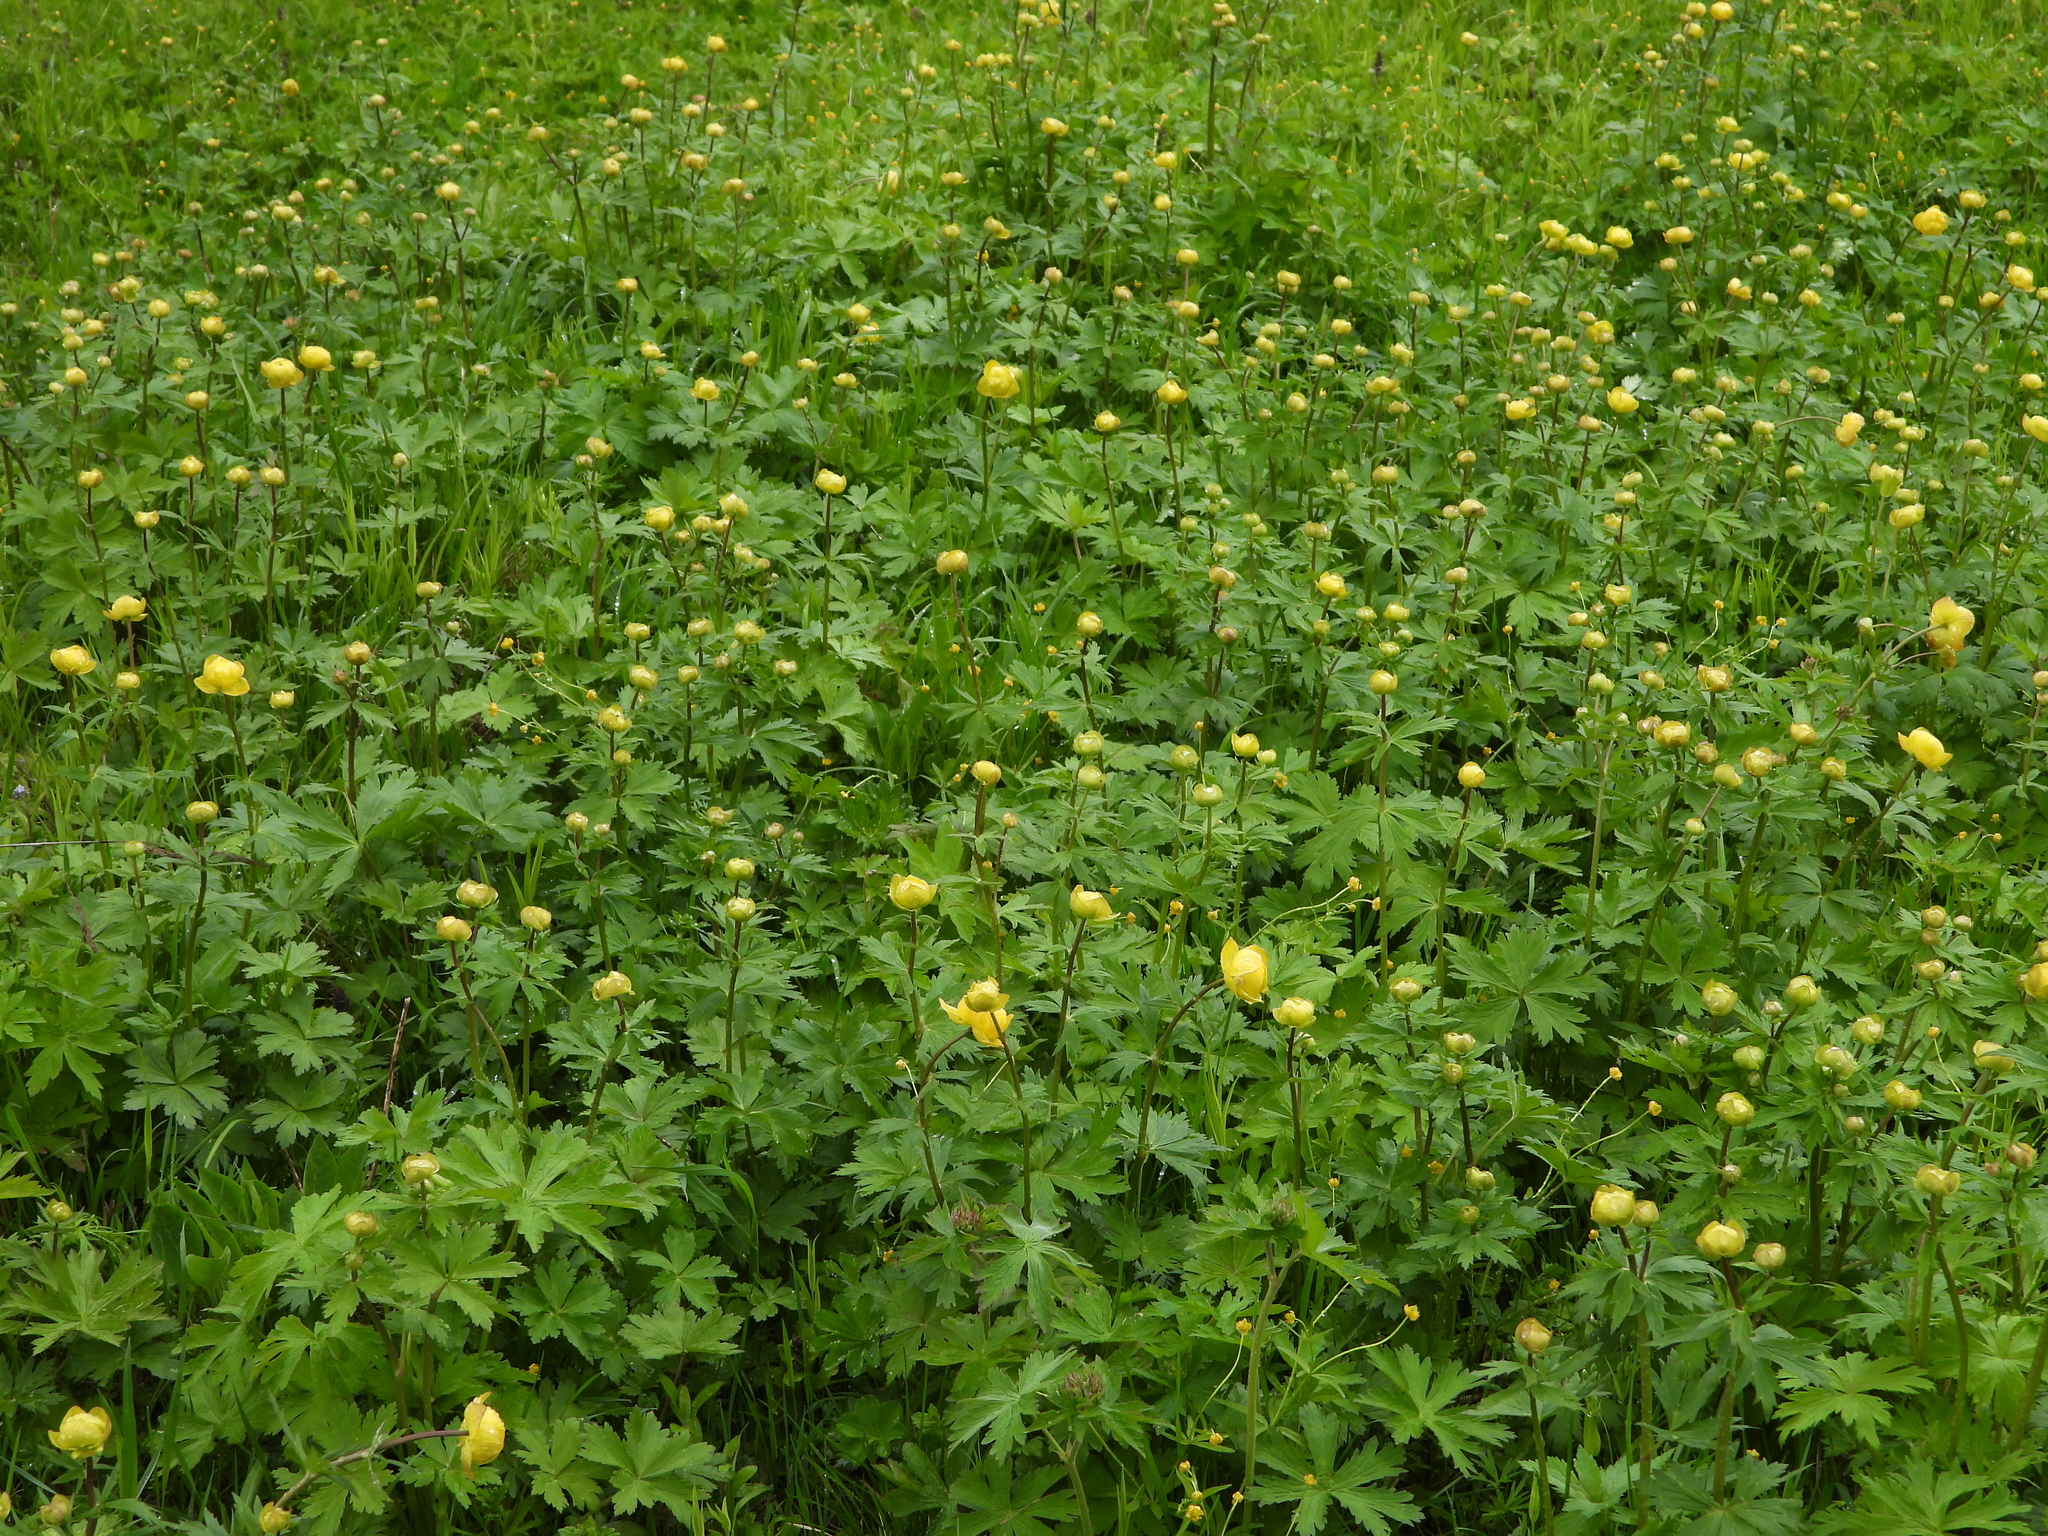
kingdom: Plantae
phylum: Tracheophyta
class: Magnoliopsida
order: Ranunculales
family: Ranunculaceae
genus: Trollius
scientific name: Trollius europaeus
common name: European globeflower
